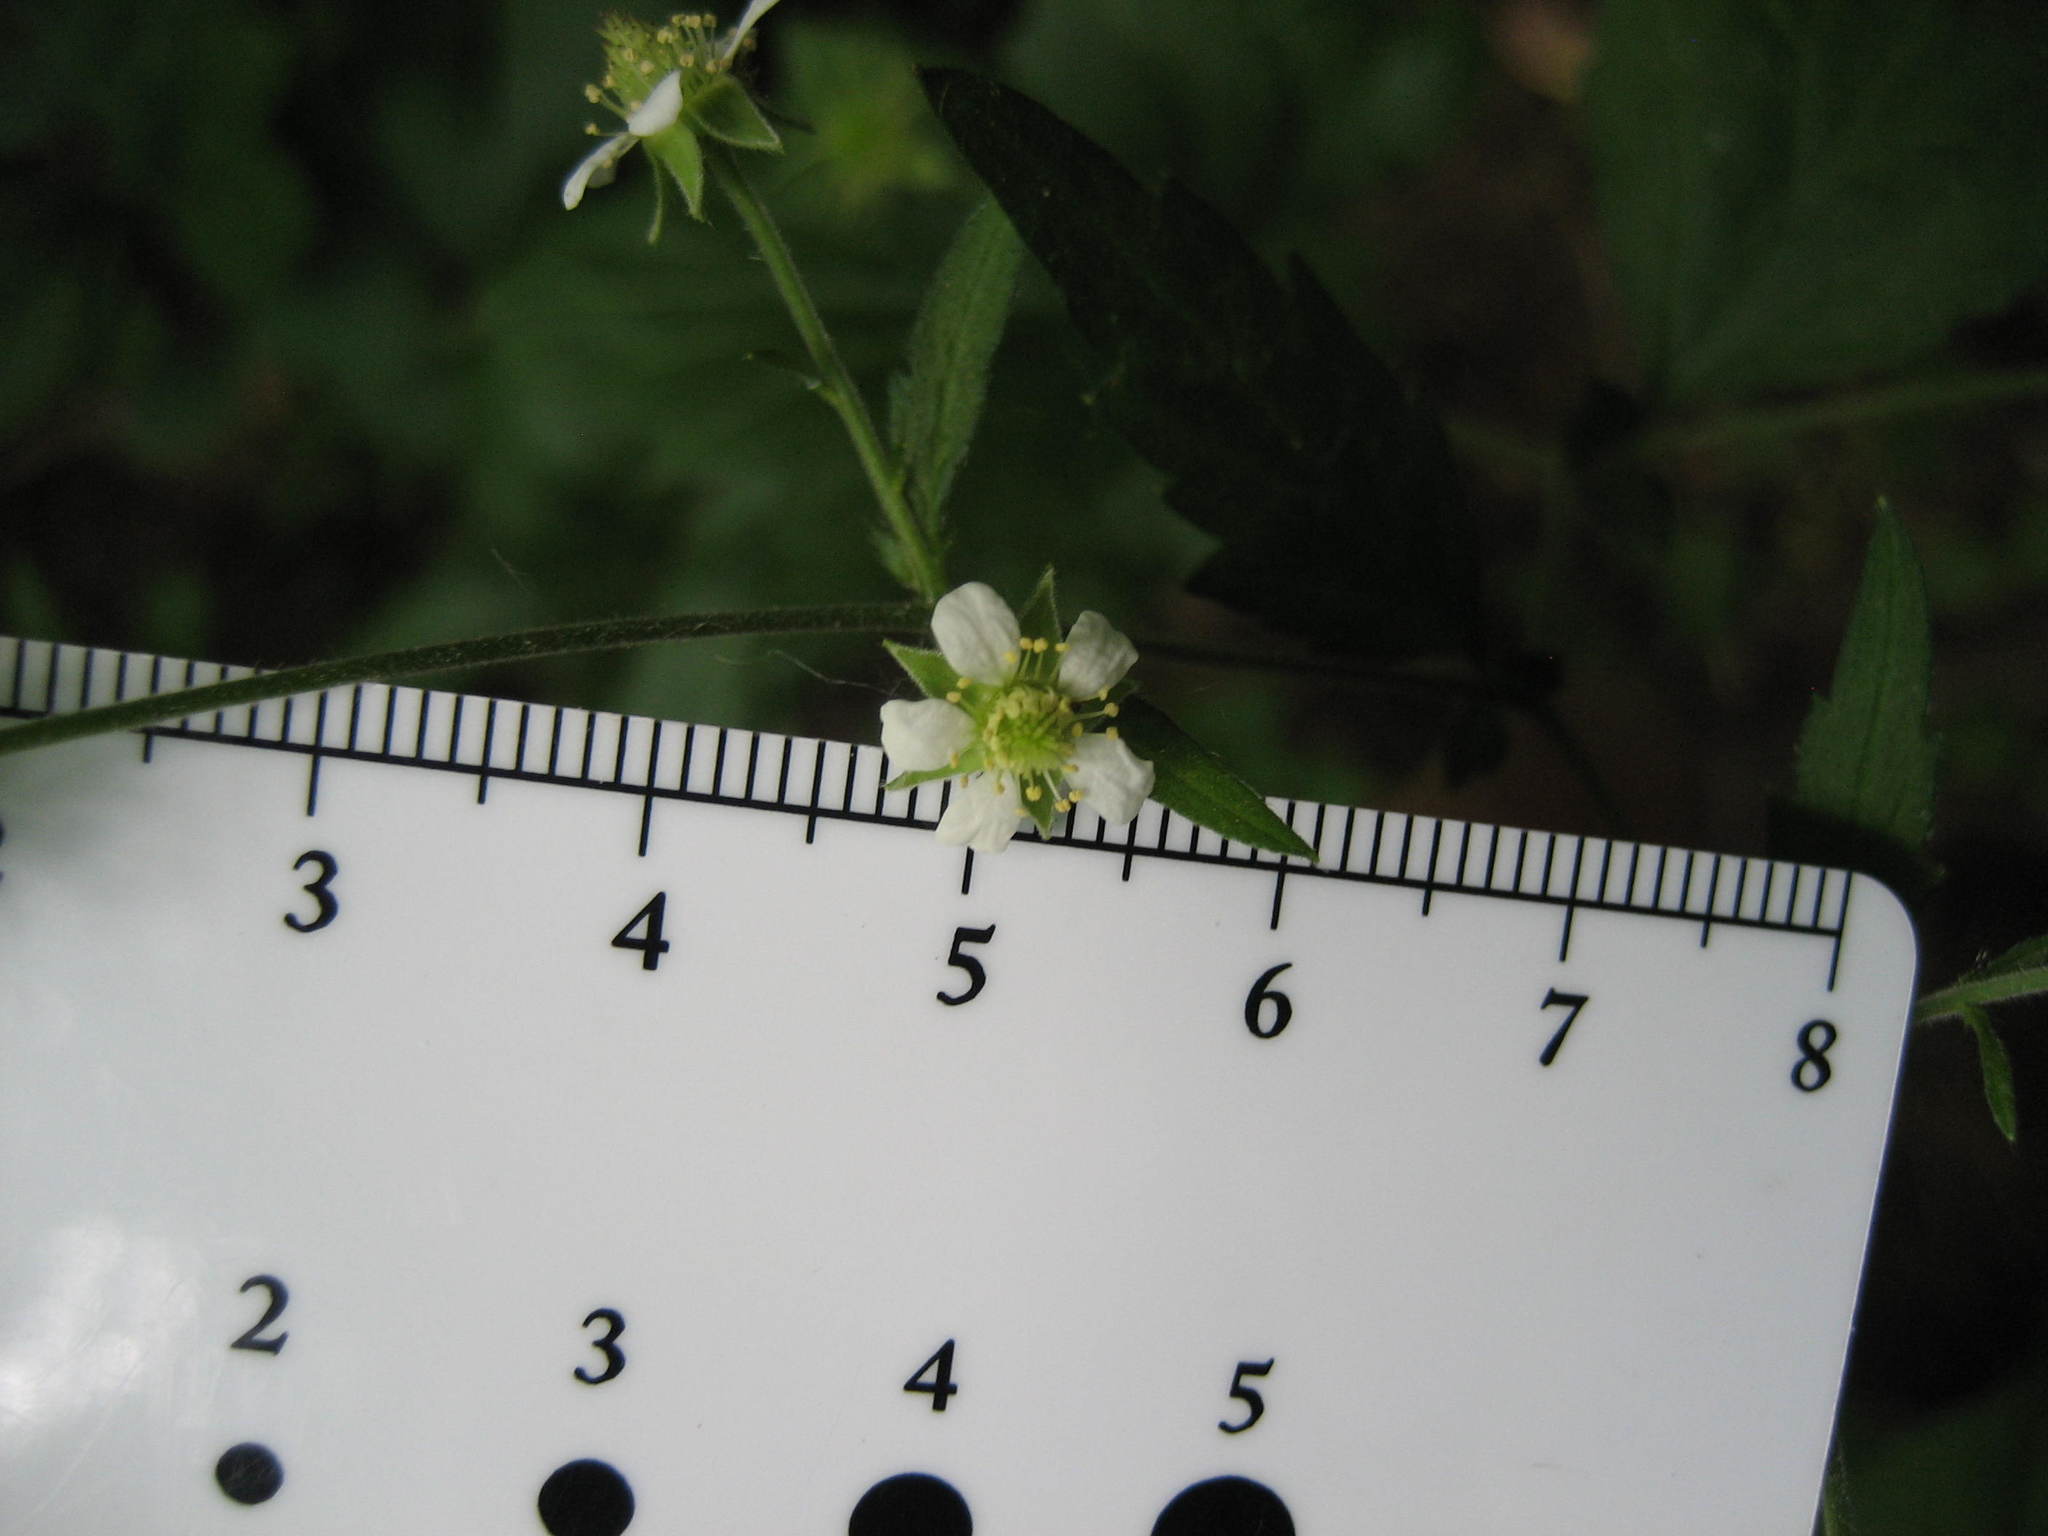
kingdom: Plantae
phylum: Tracheophyta
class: Magnoliopsida
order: Rosales
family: Rosaceae
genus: Geum
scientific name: Geum canadense
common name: White avens
